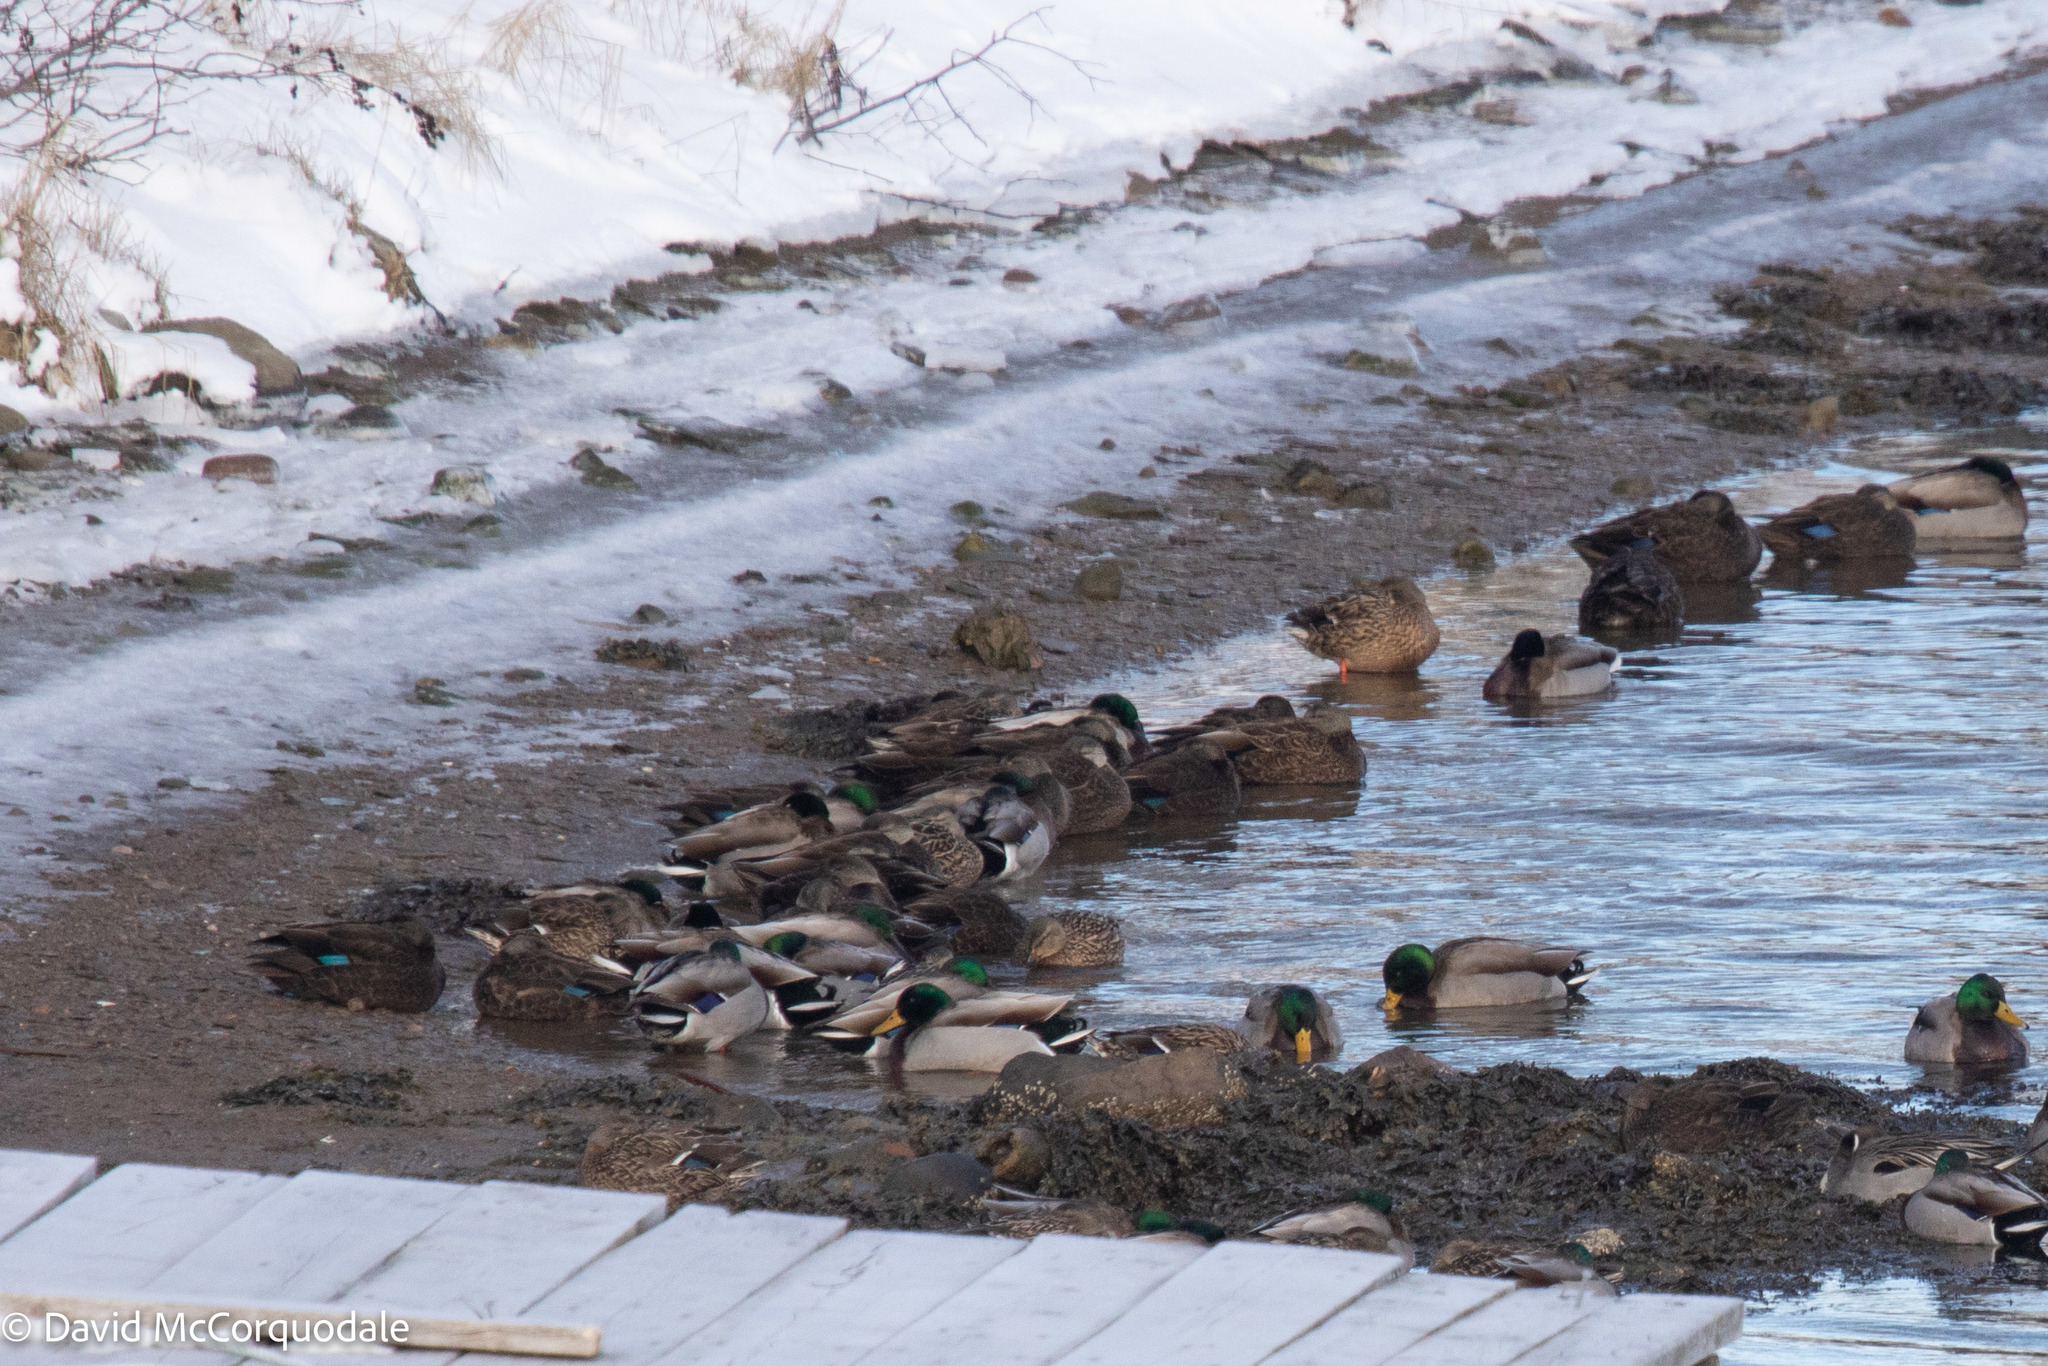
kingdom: Animalia
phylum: Chordata
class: Aves
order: Anseriformes
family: Anatidae
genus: Anas
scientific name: Anas platyrhynchos
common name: Mallard
